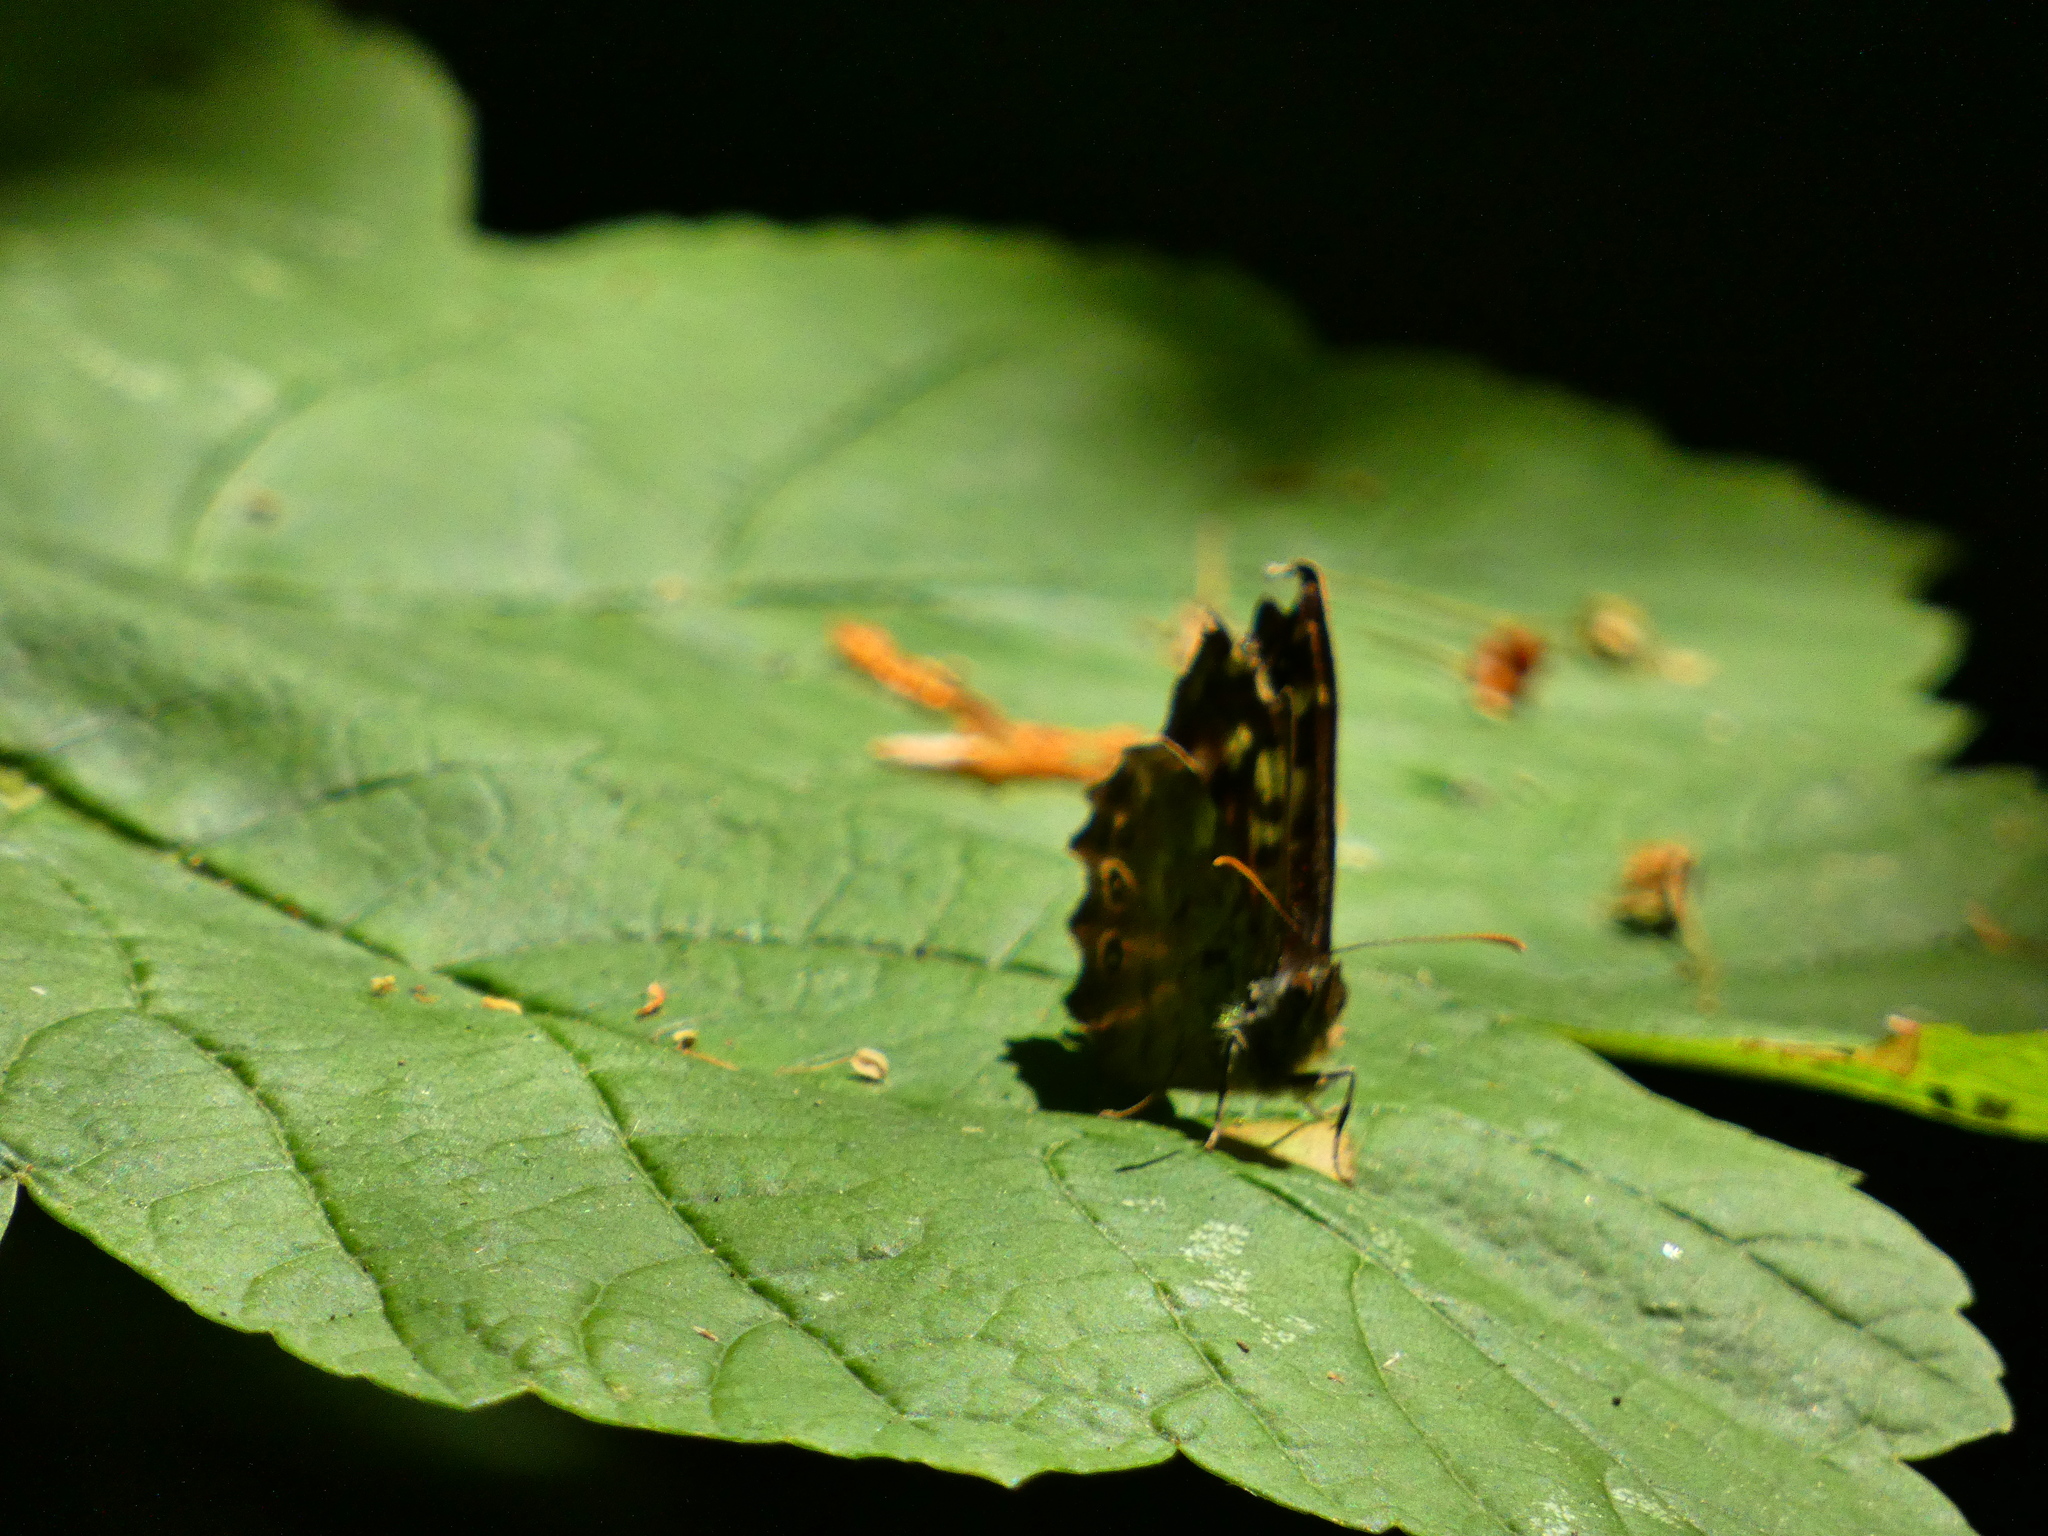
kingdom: Animalia
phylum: Arthropoda
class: Insecta
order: Lepidoptera
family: Nymphalidae
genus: Pararge
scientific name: Pararge aegeria
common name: Speckled wood
